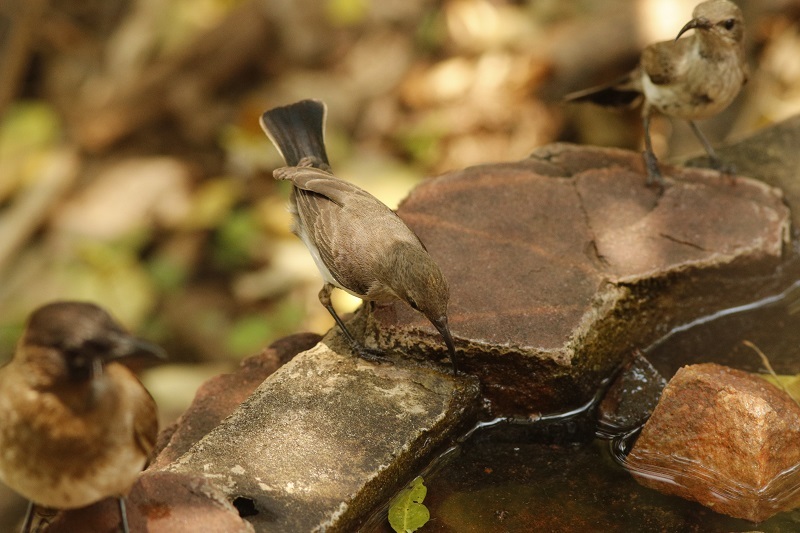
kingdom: Animalia
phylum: Chordata
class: Aves
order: Passeriformes
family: Nectariniidae
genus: Cinnyris
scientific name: Cinnyris talatala
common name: White-bellied sunbird
